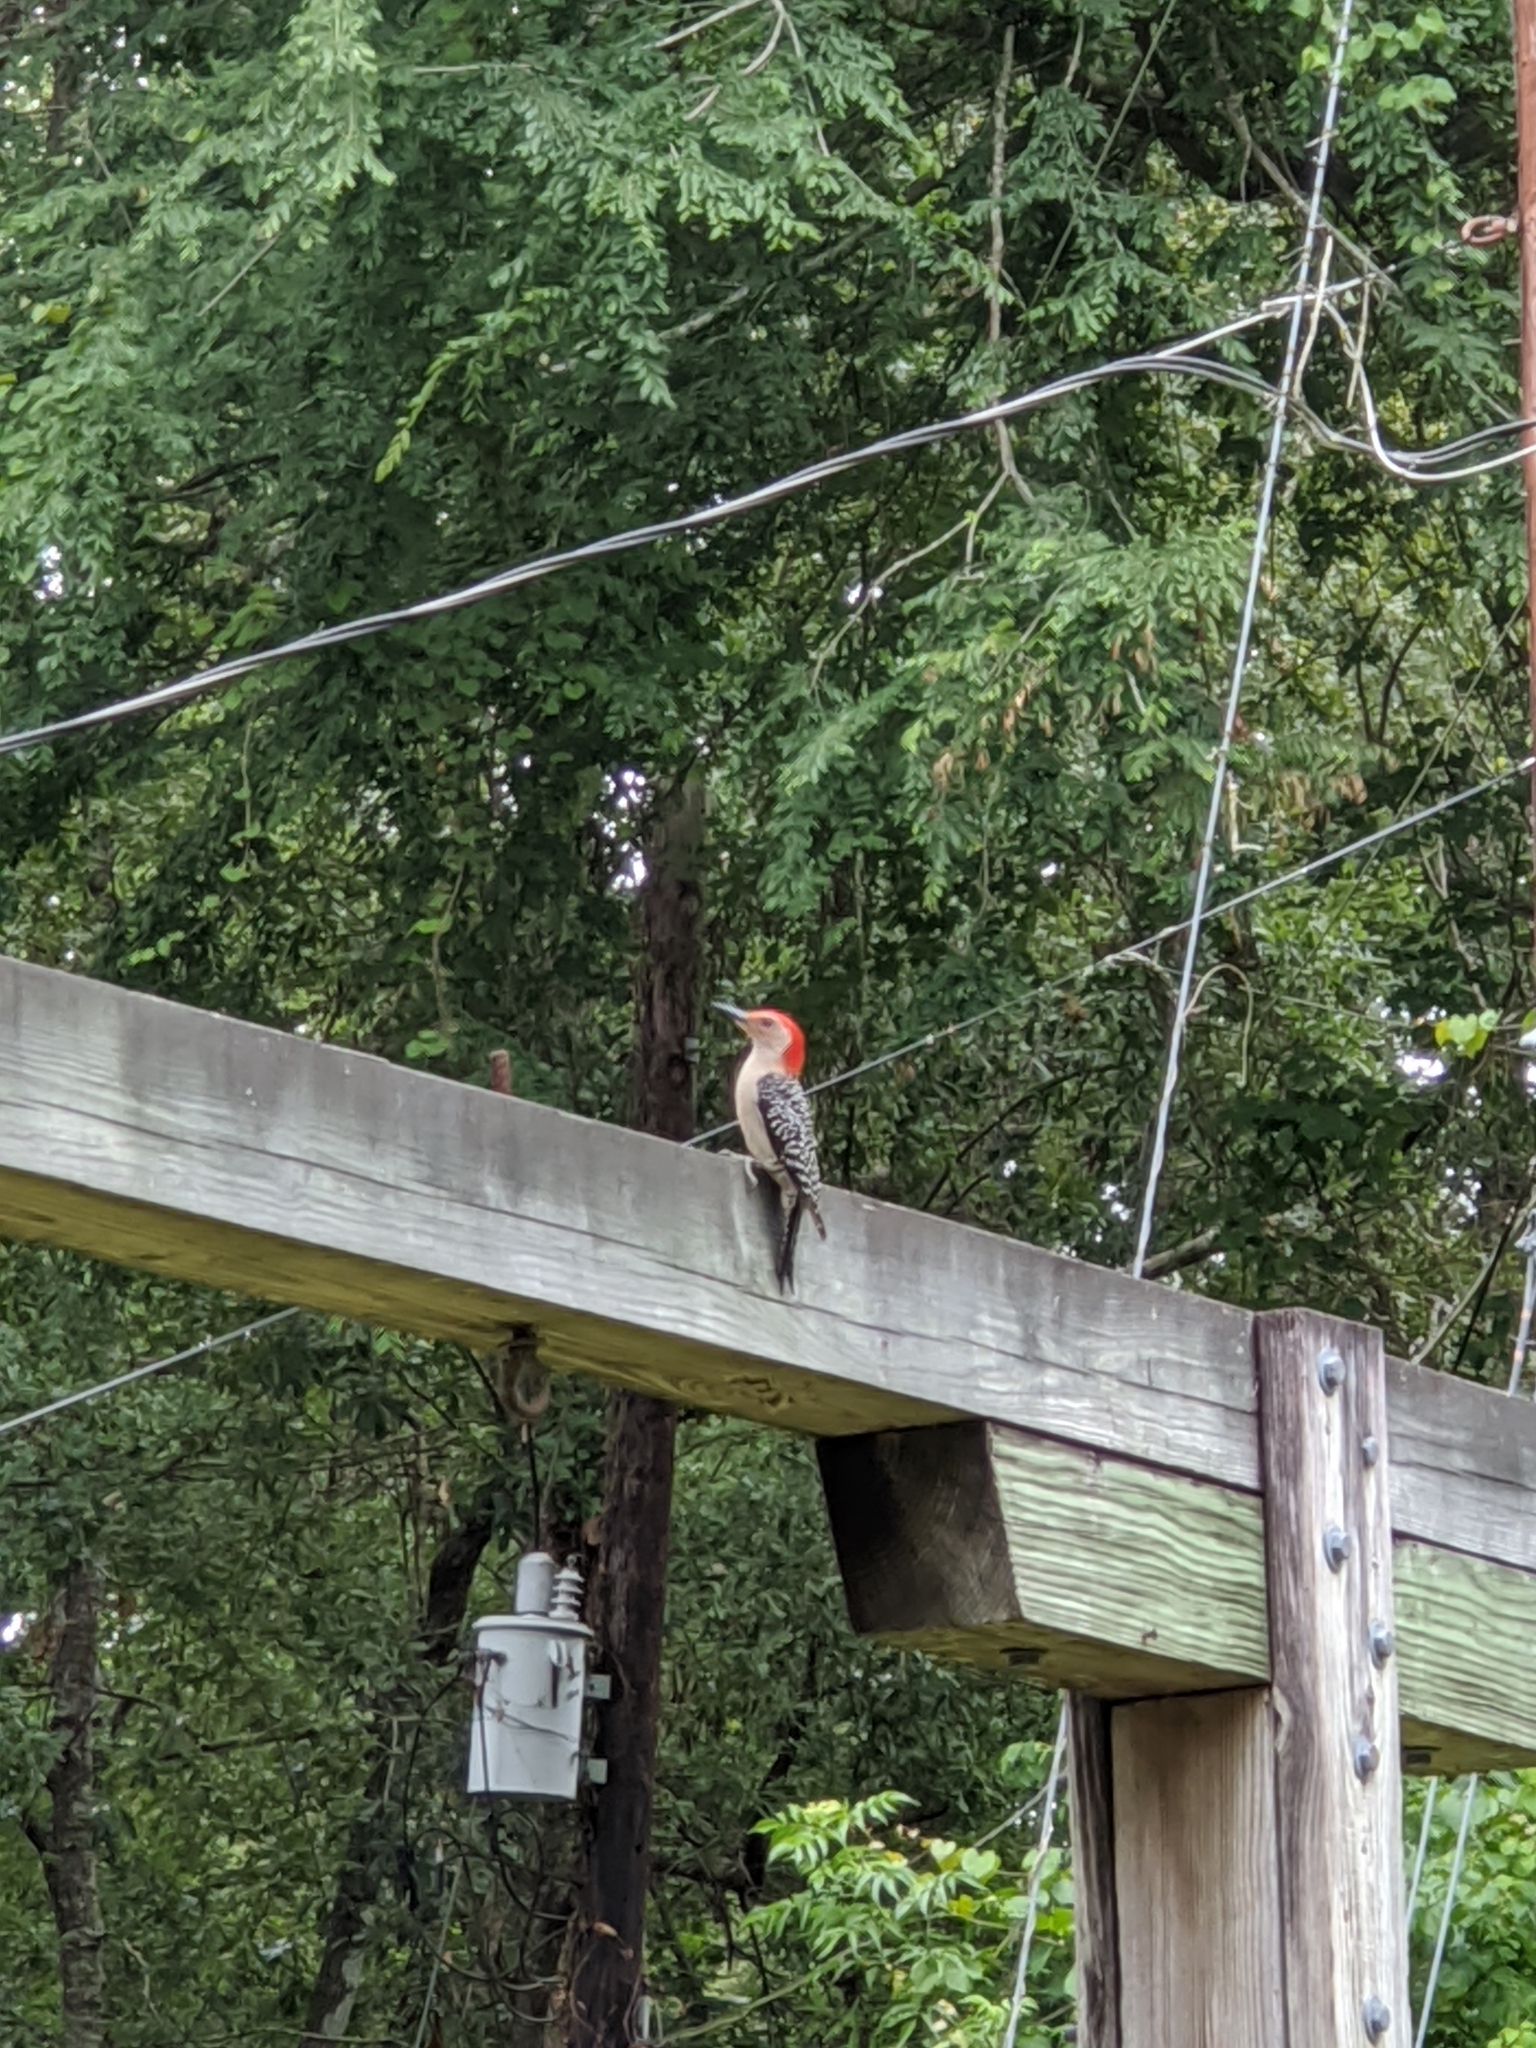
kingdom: Animalia
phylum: Chordata
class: Aves
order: Piciformes
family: Picidae
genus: Melanerpes
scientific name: Melanerpes carolinus
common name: Red-bellied woodpecker
